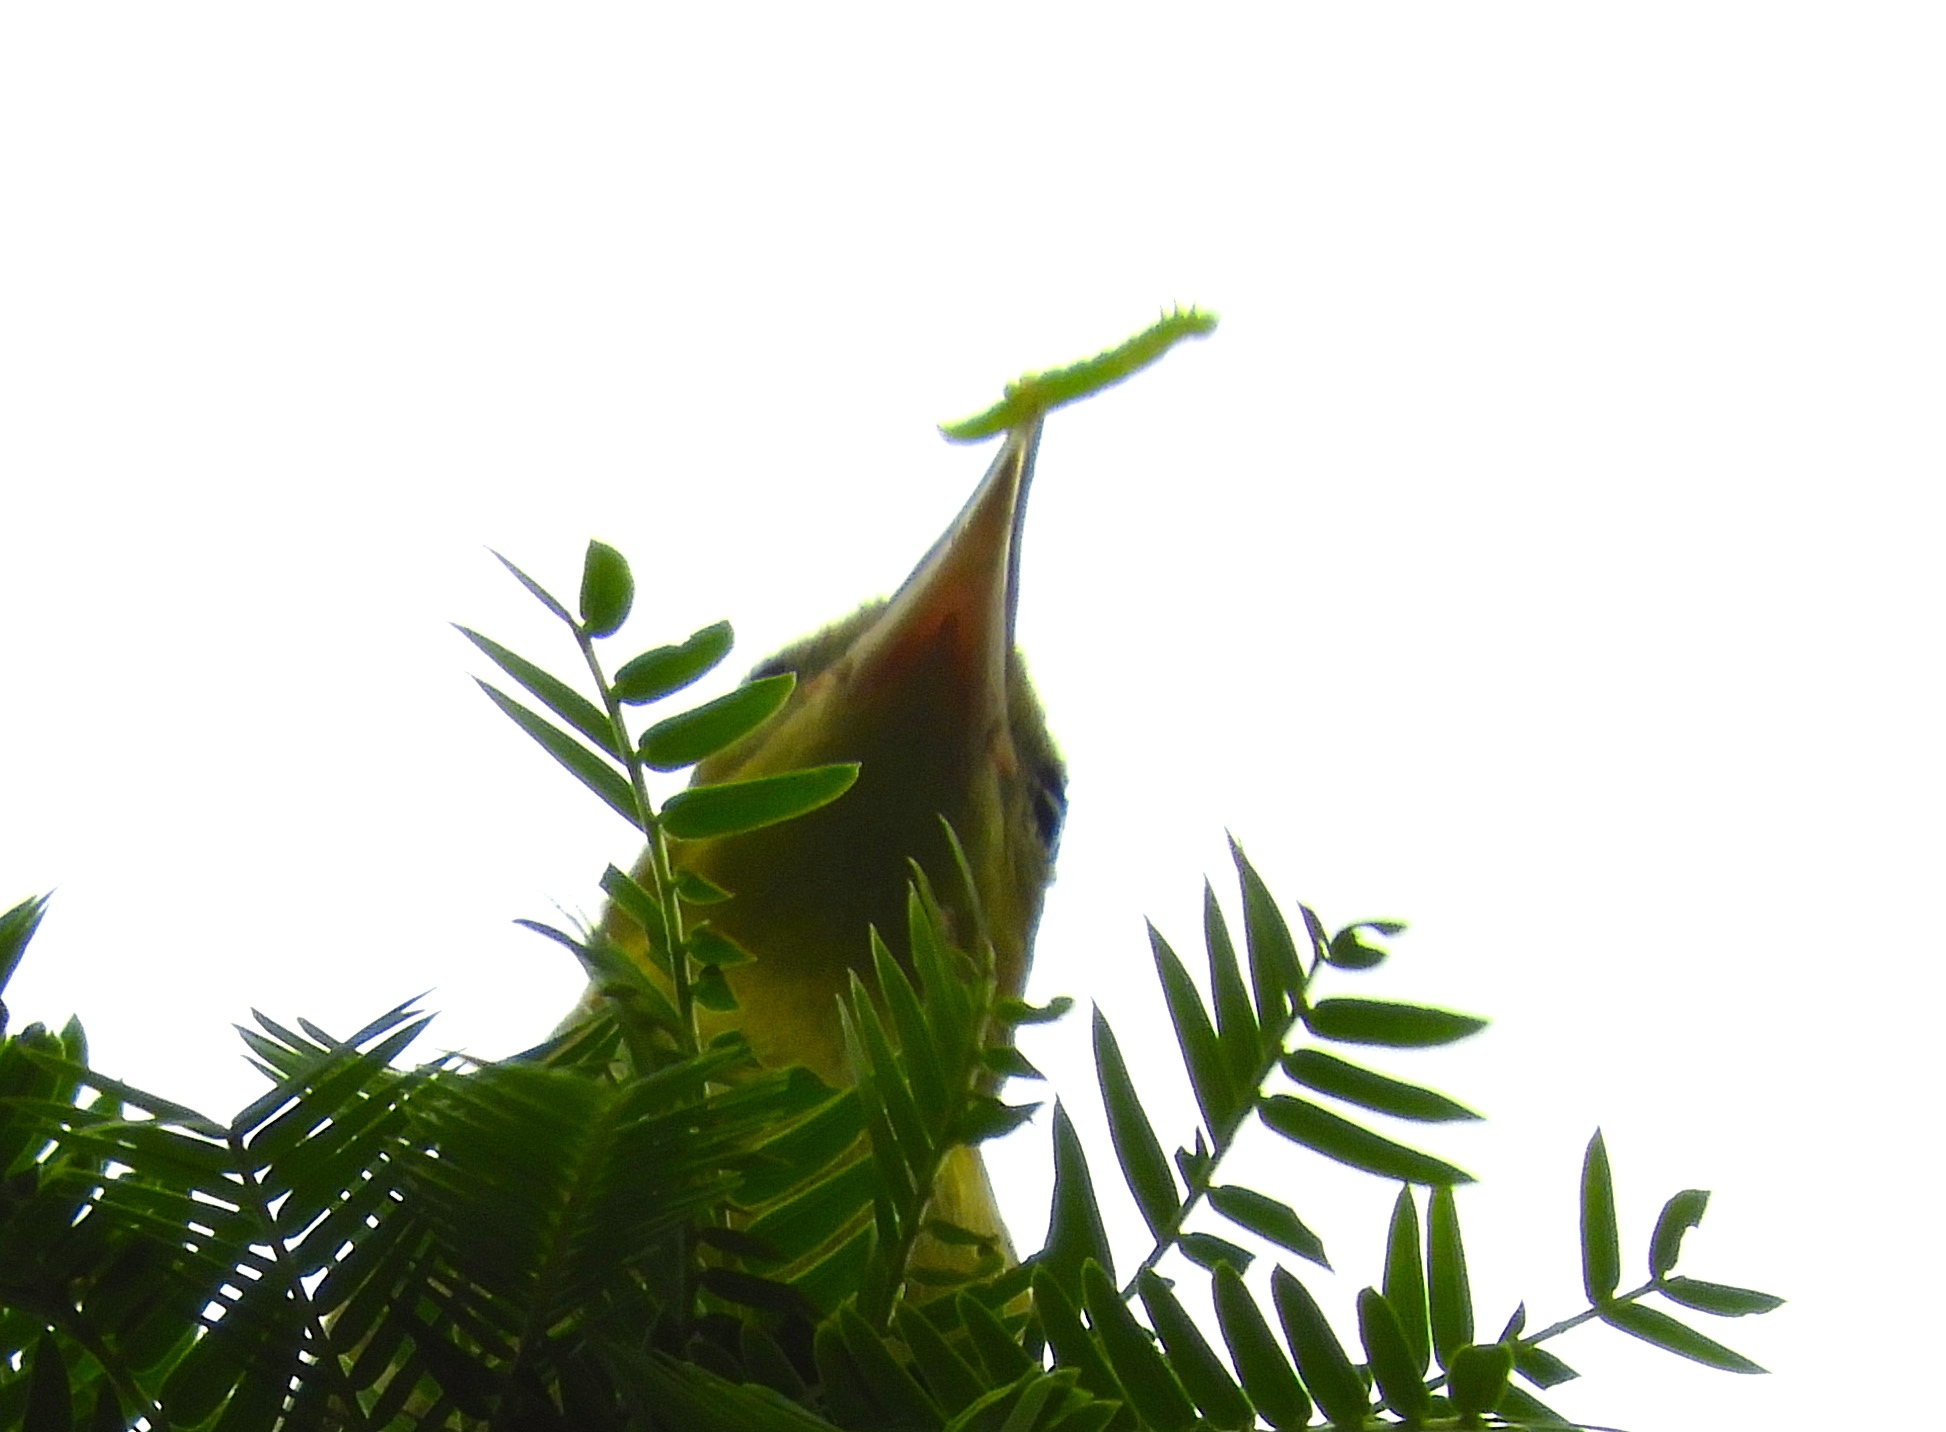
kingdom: Animalia
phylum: Chordata
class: Aves
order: Passeriformes
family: Icteridae
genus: Icterus
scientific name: Icterus
